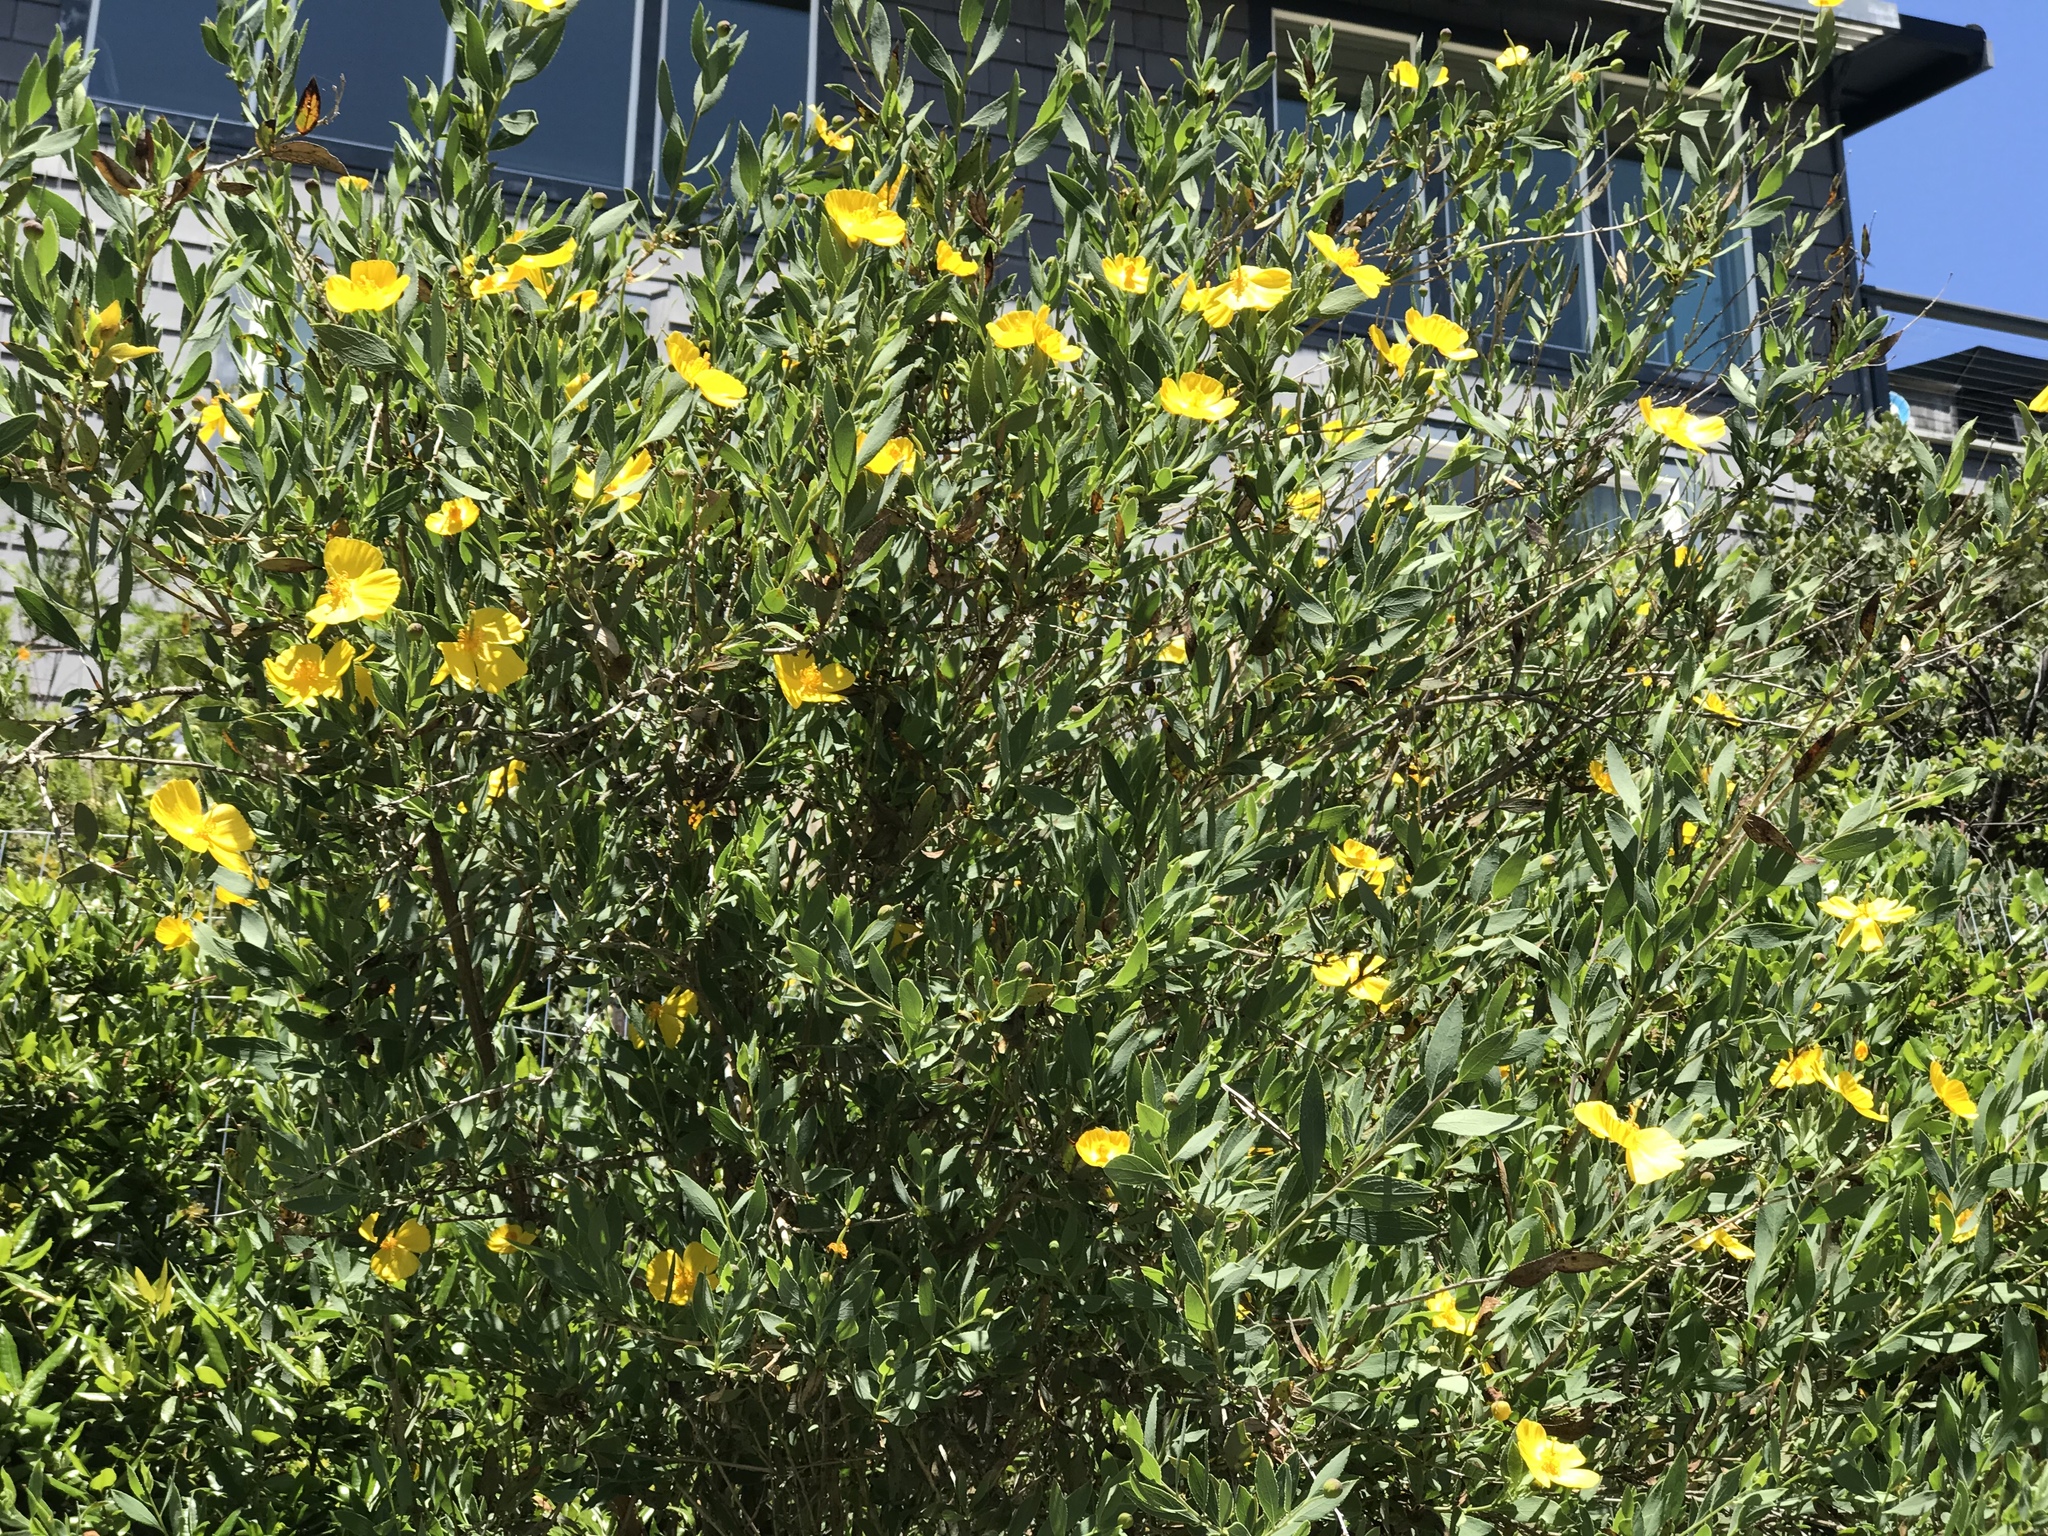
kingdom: Plantae
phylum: Tracheophyta
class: Magnoliopsida
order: Ranunculales
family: Papaveraceae
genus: Dendromecon
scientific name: Dendromecon rigida
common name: Tree poppy
